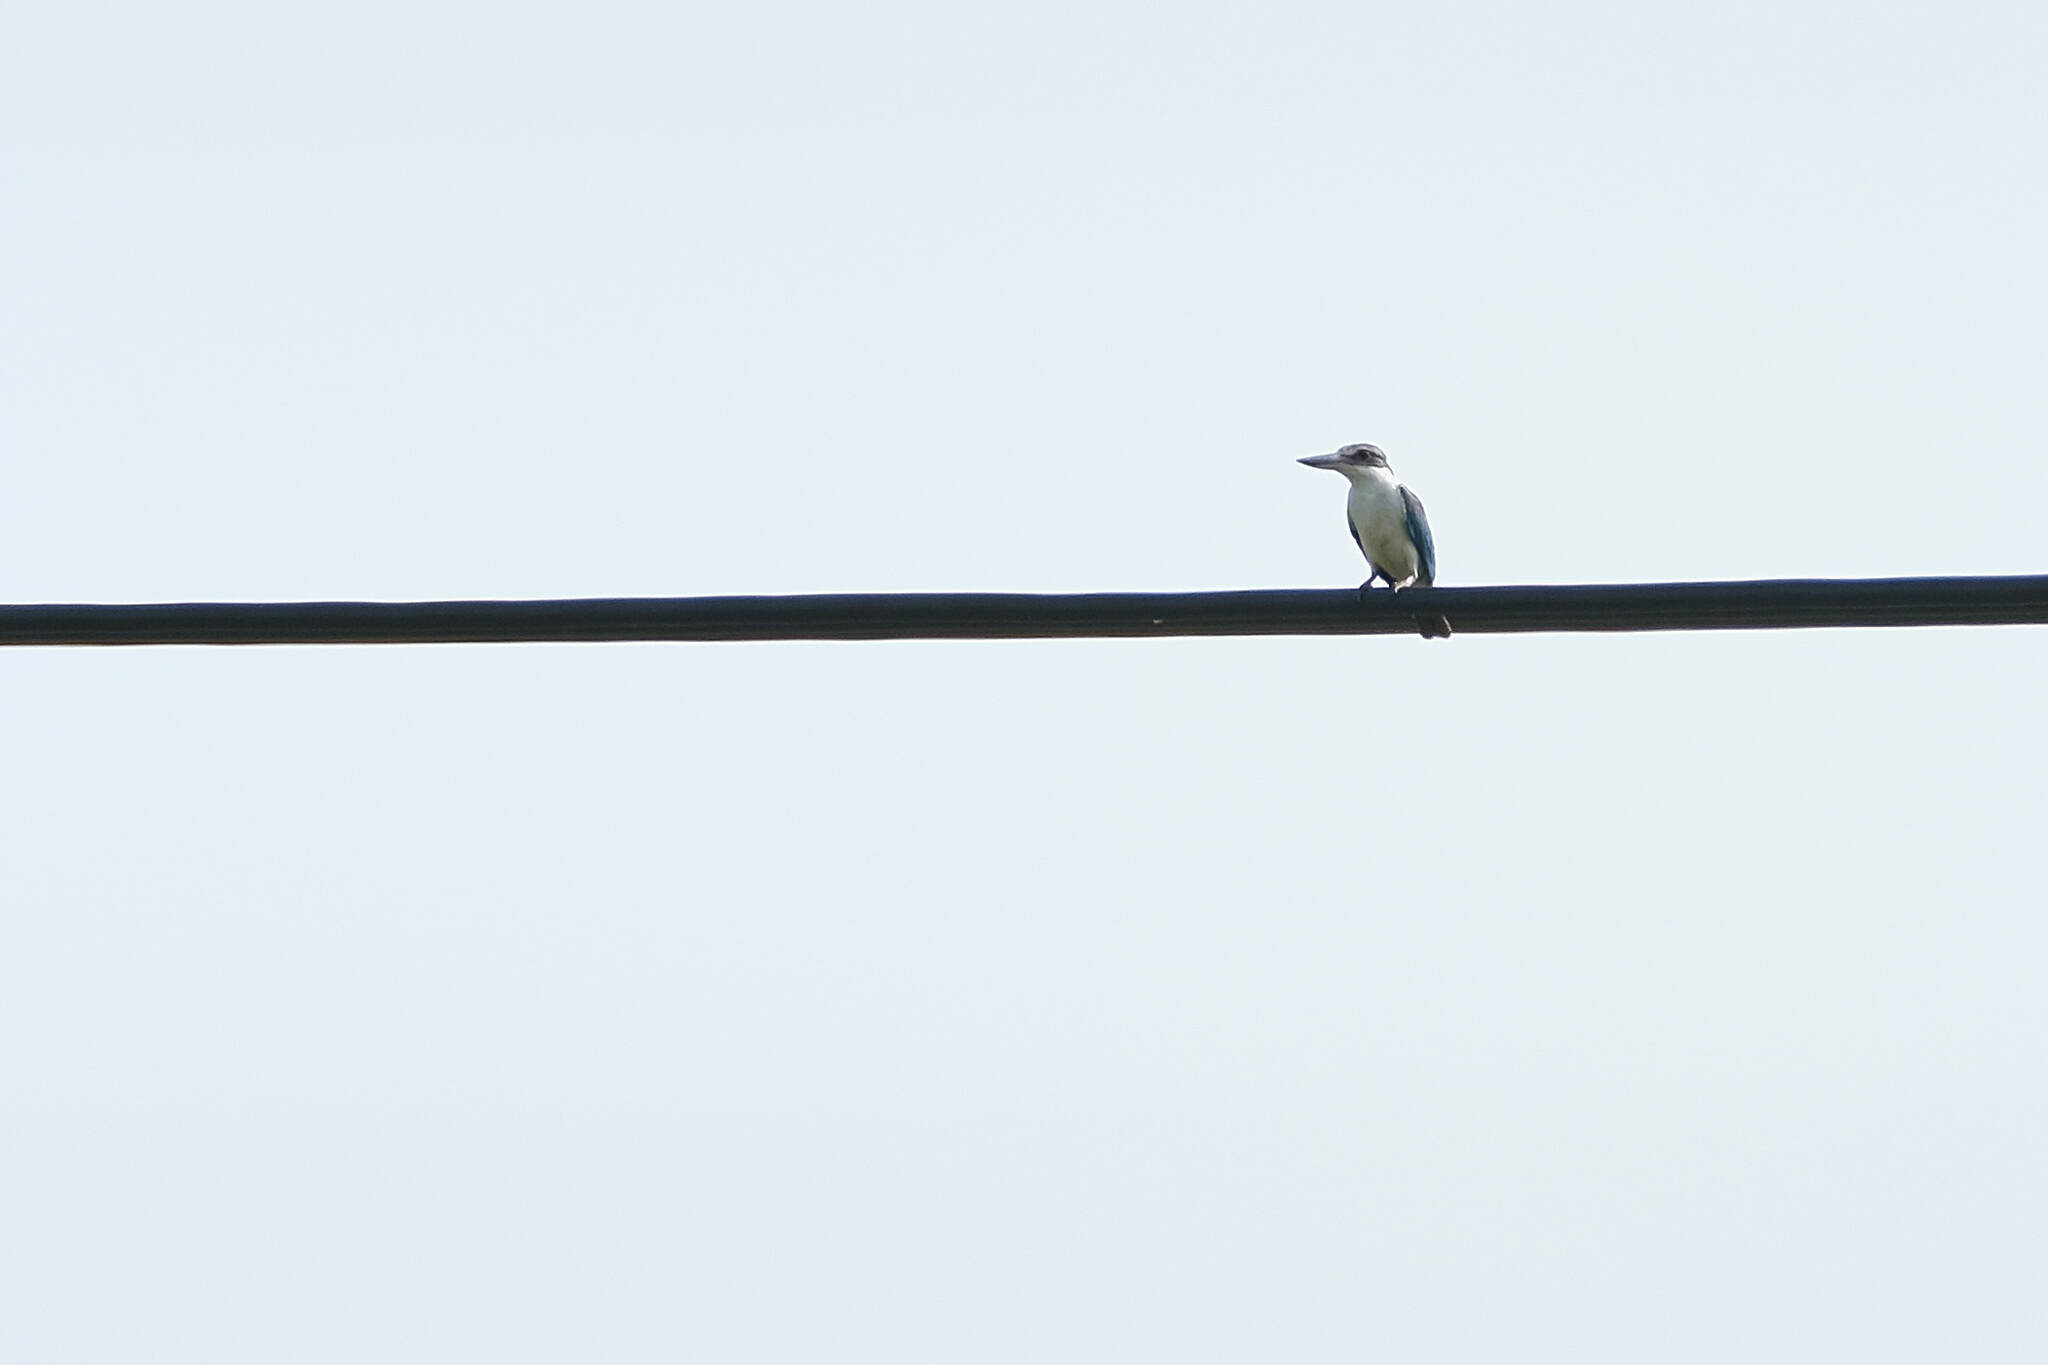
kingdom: Animalia
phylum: Chordata
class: Aves
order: Coraciiformes
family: Alcedinidae
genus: Todiramphus
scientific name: Todiramphus chloris
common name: Collared kingfisher
